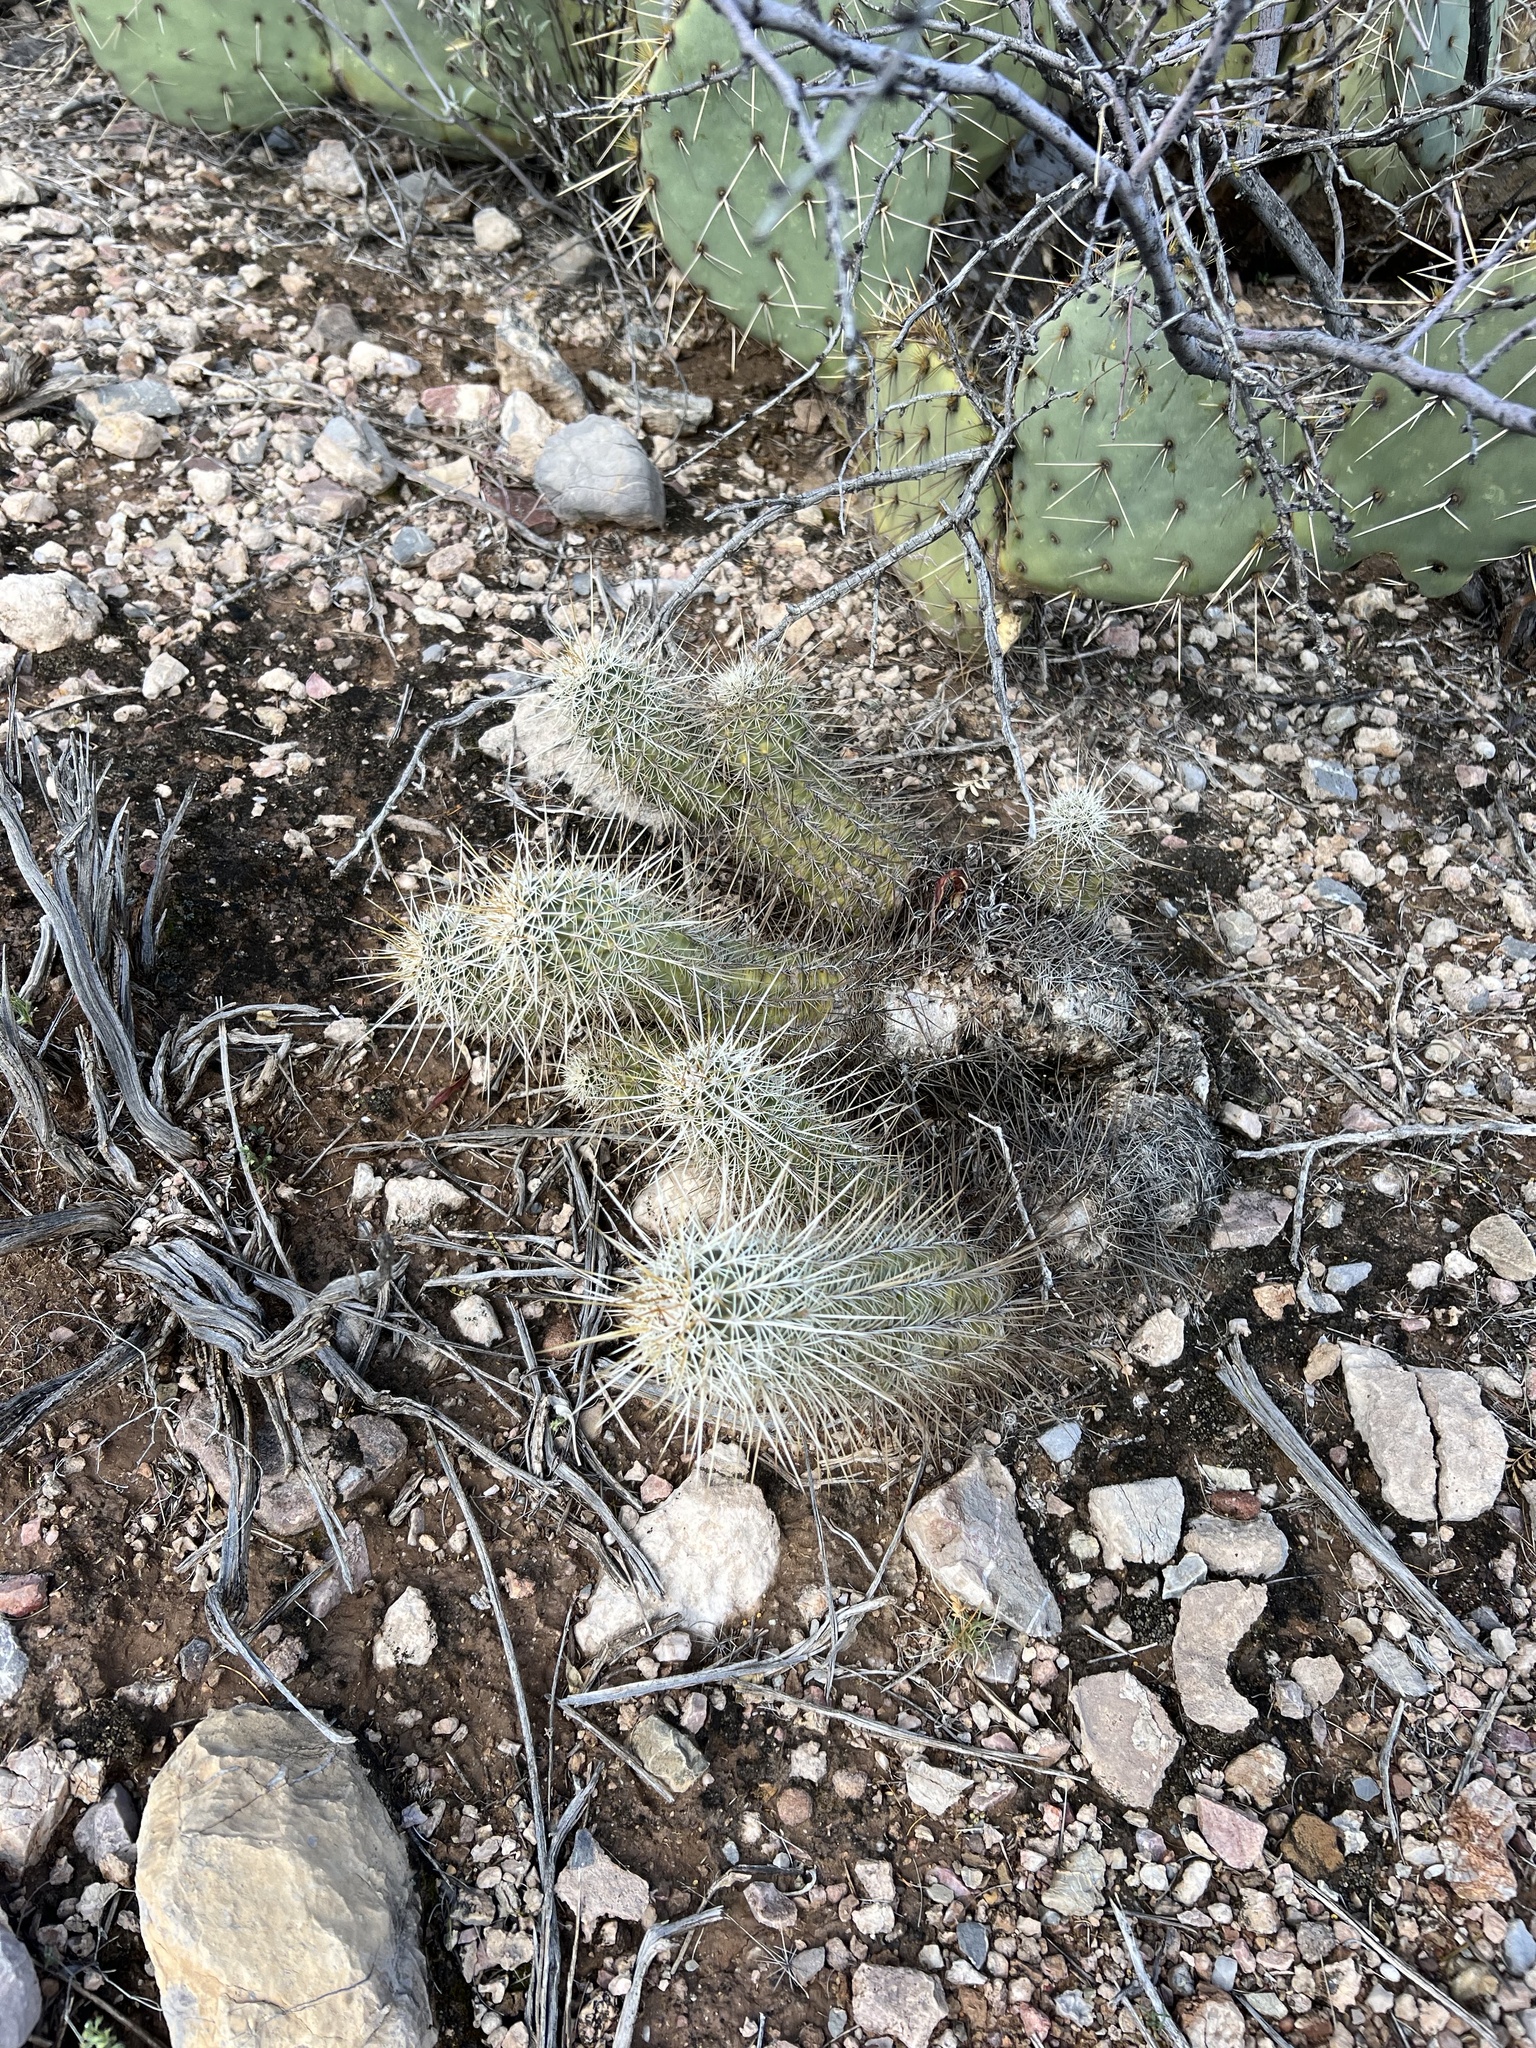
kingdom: Plantae
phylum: Tracheophyta
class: Magnoliopsida
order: Caryophyllales
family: Cactaceae
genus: Echinocereus
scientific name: Echinocereus fasciculatus
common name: Bundle hedgehog
